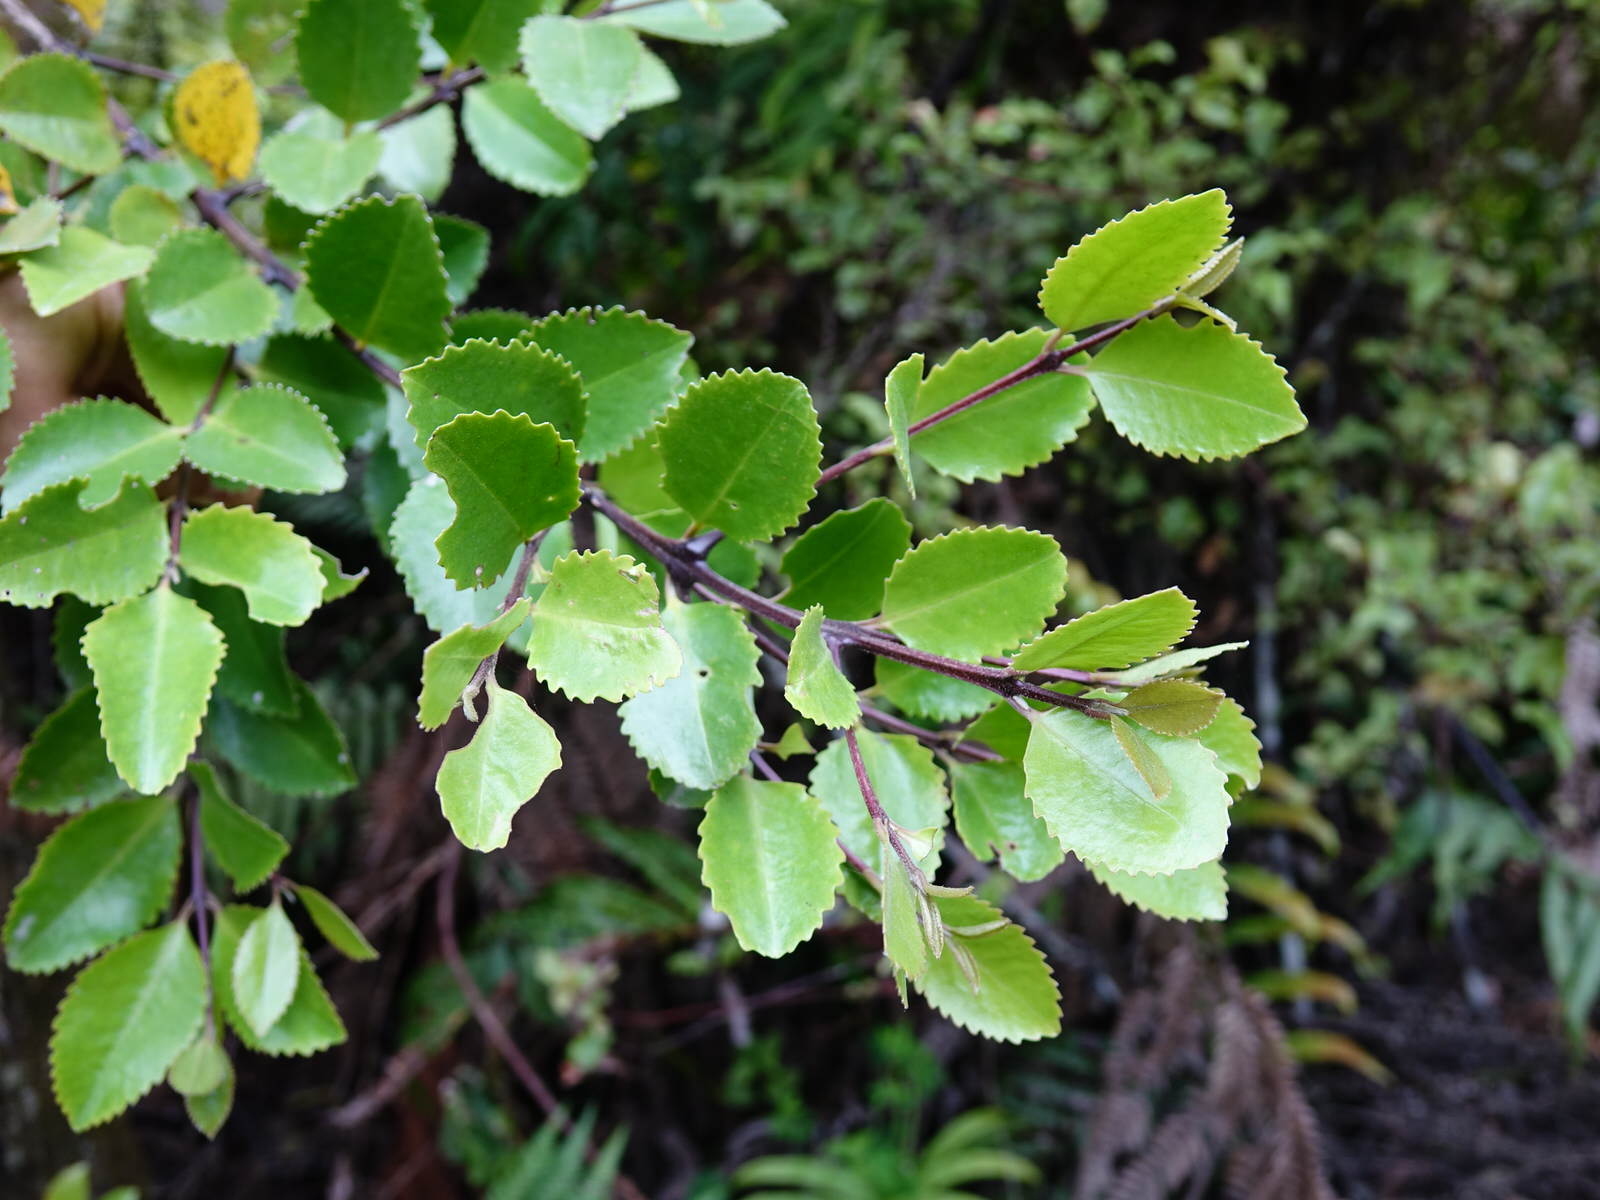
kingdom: Plantae
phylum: Tracheophyta
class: Magnoliopsida
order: Laurales
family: Atherospermataceae
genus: Laurelia
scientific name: Laurelia novae-zelandiae
